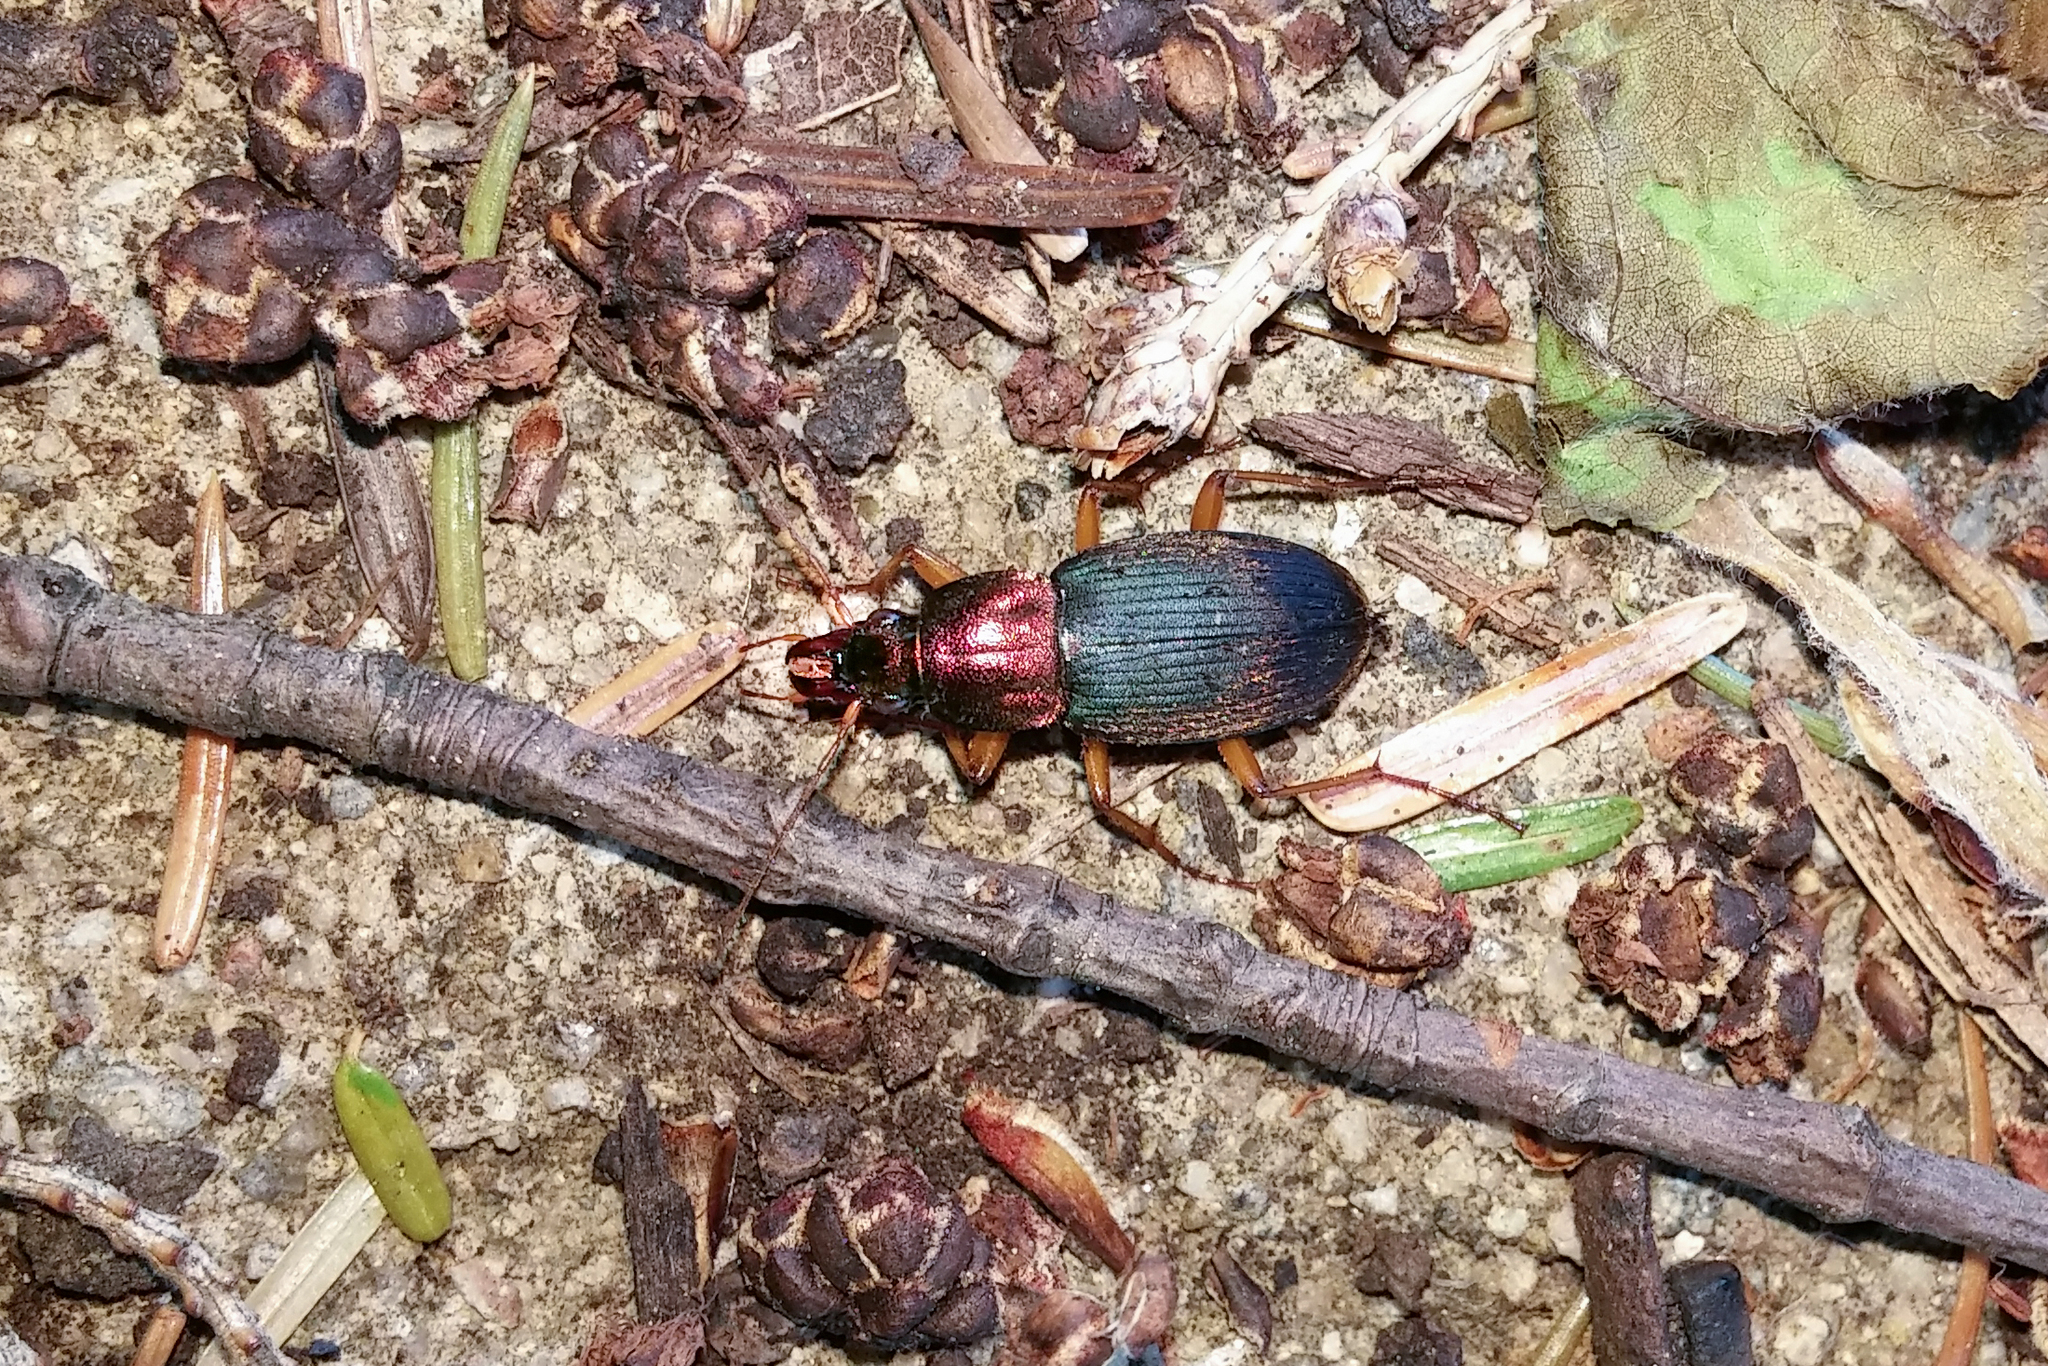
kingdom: Animalia
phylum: Arthropoda
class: Insecta
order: Coleoptera
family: Carabidae
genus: Chlaenius
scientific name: Chlaenius emarginatus
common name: Emarginate chlaenius
